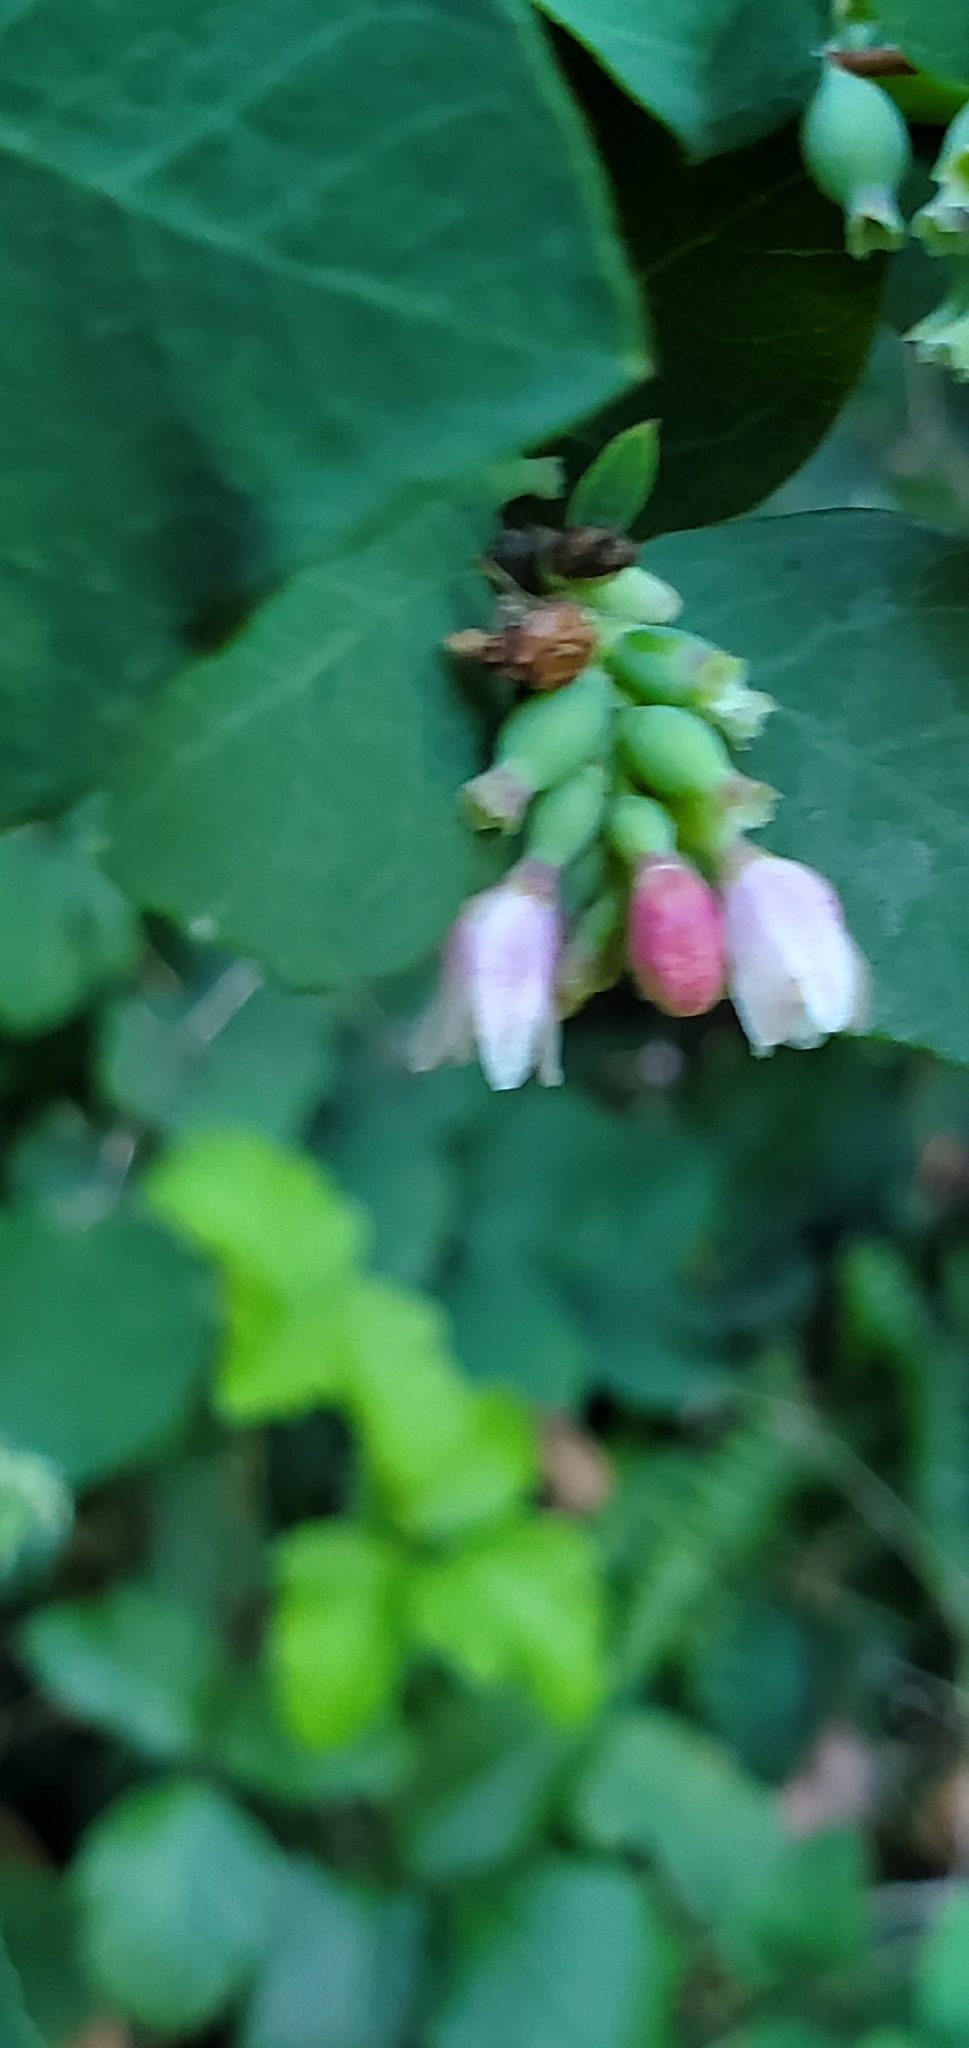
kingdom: Plantae
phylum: Tracheophyta
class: Magnoliopsida
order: Dipsacales
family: Caprifoliaceae
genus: Symphoricarpos
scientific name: Symphoricarpos albus
